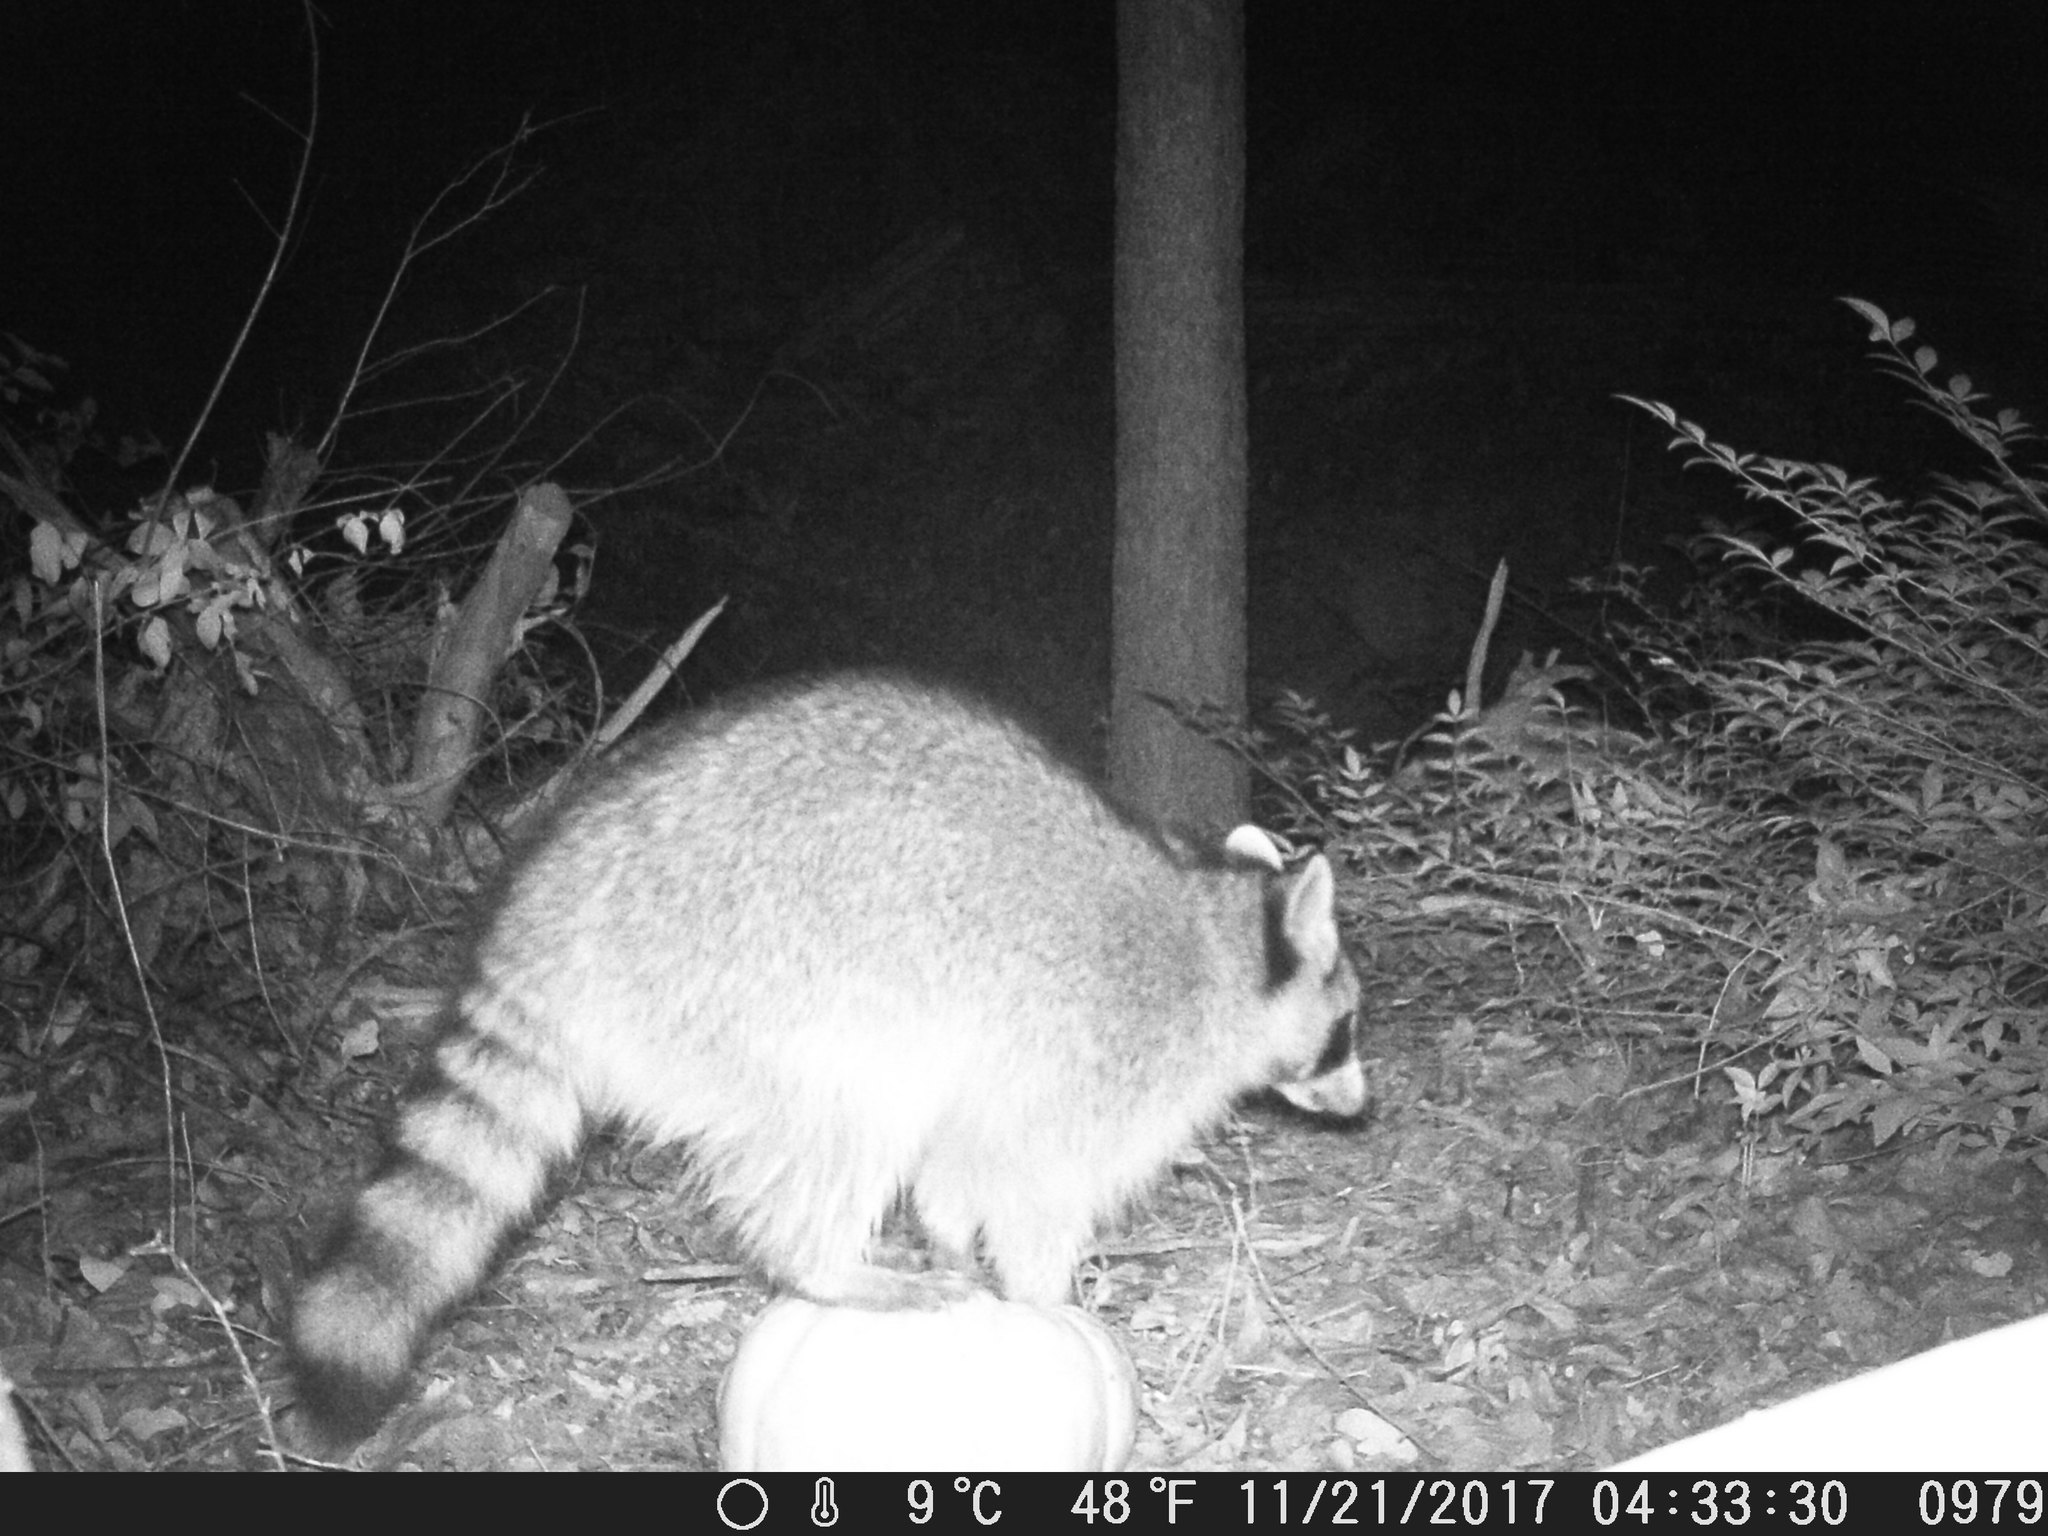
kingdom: Animalia
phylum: Chordata
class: Mammalia
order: Carnivora
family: Procyonidae
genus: Procyon
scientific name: Procyon lotor
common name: Raccoon
